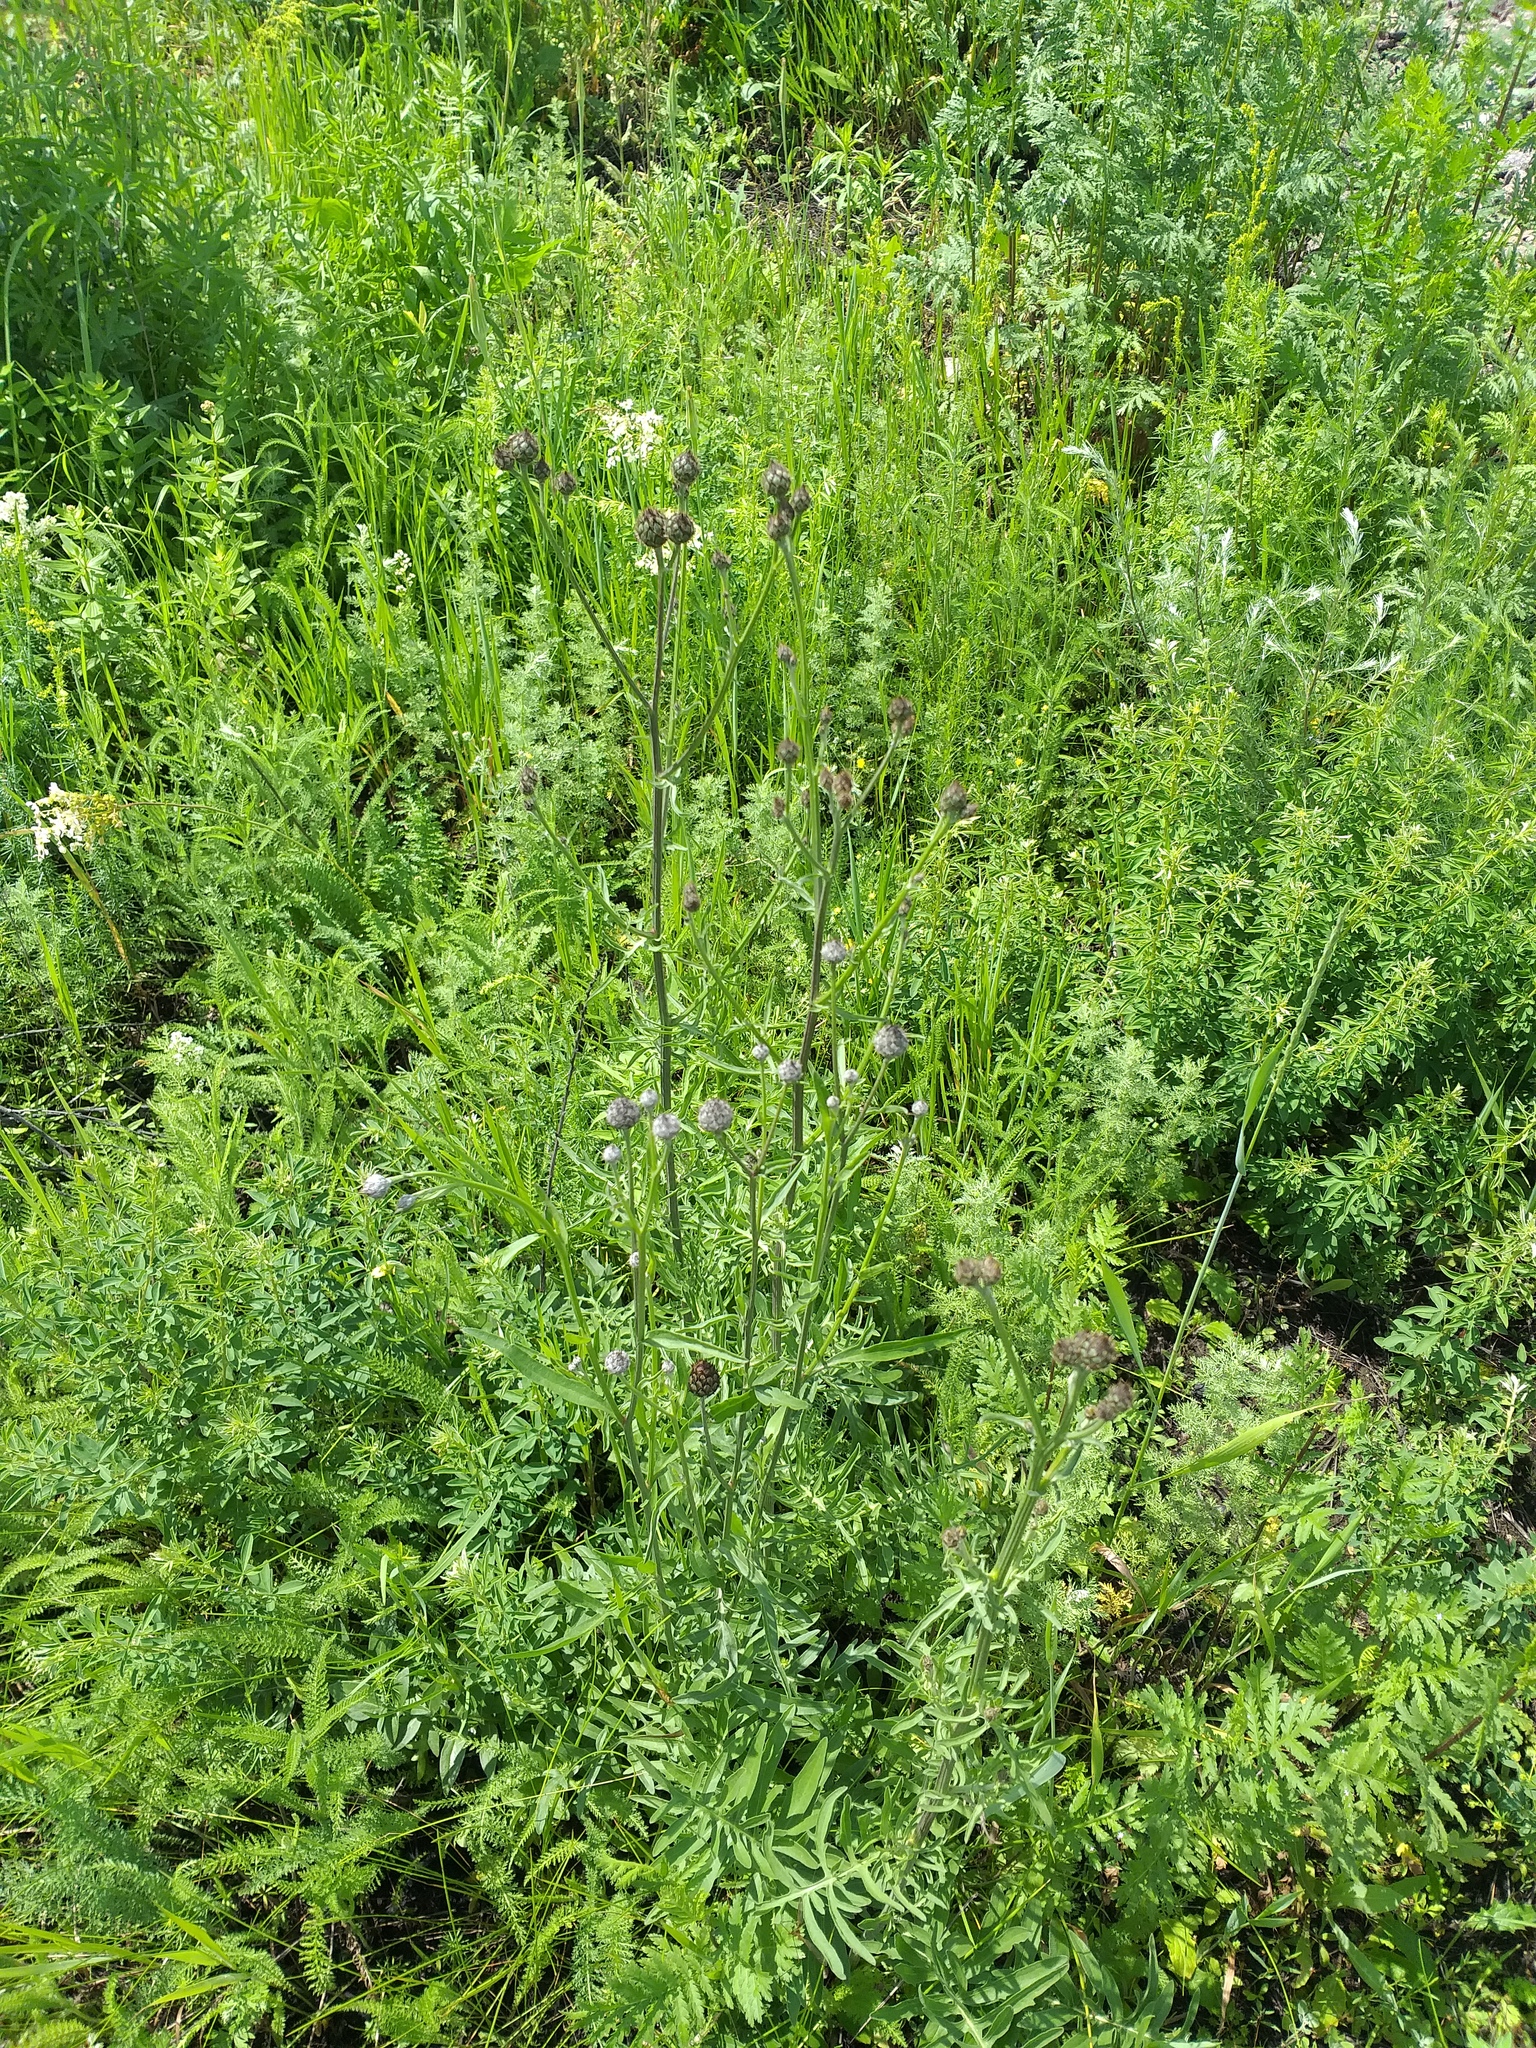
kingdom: Plantae
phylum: Tracheophyta
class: Magnoliopsida
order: Asterales
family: Asteraceae
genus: Centaurea
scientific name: Centaurea scabiosa
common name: Greater knapweed
